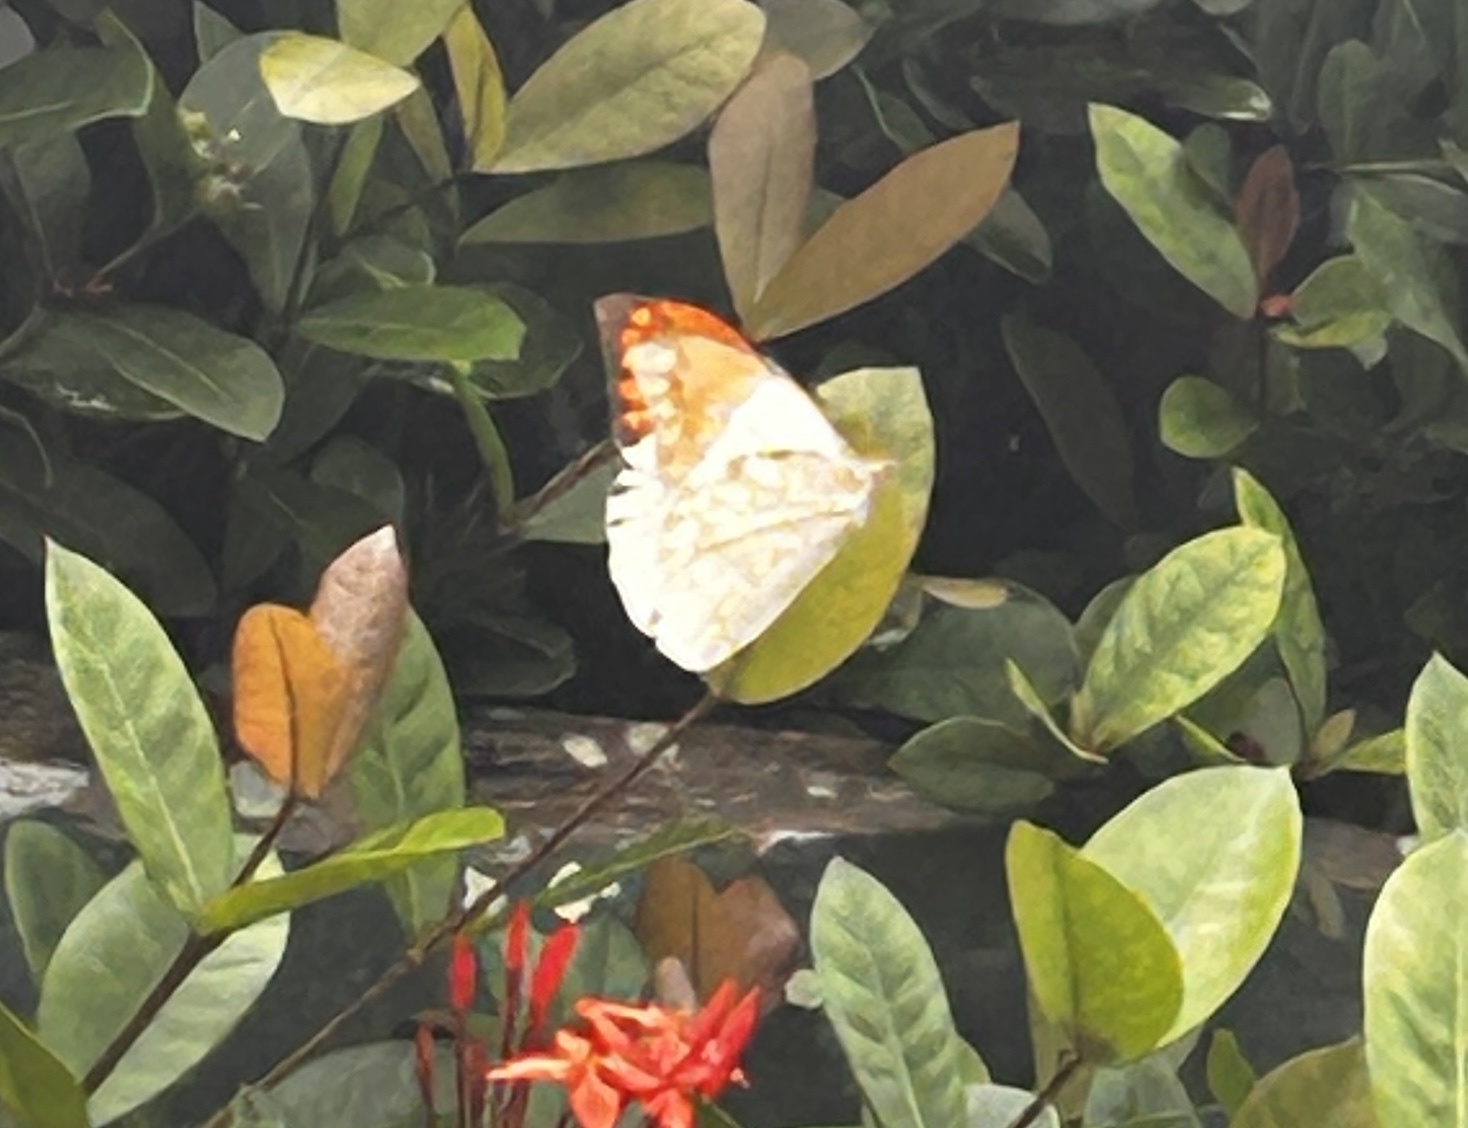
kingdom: Animalia
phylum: Arthropoda
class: Insecta
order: Lepidoptera
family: Pieridae
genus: Hebomoia
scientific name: Hebomoia glaucippe
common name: Great orange tip
